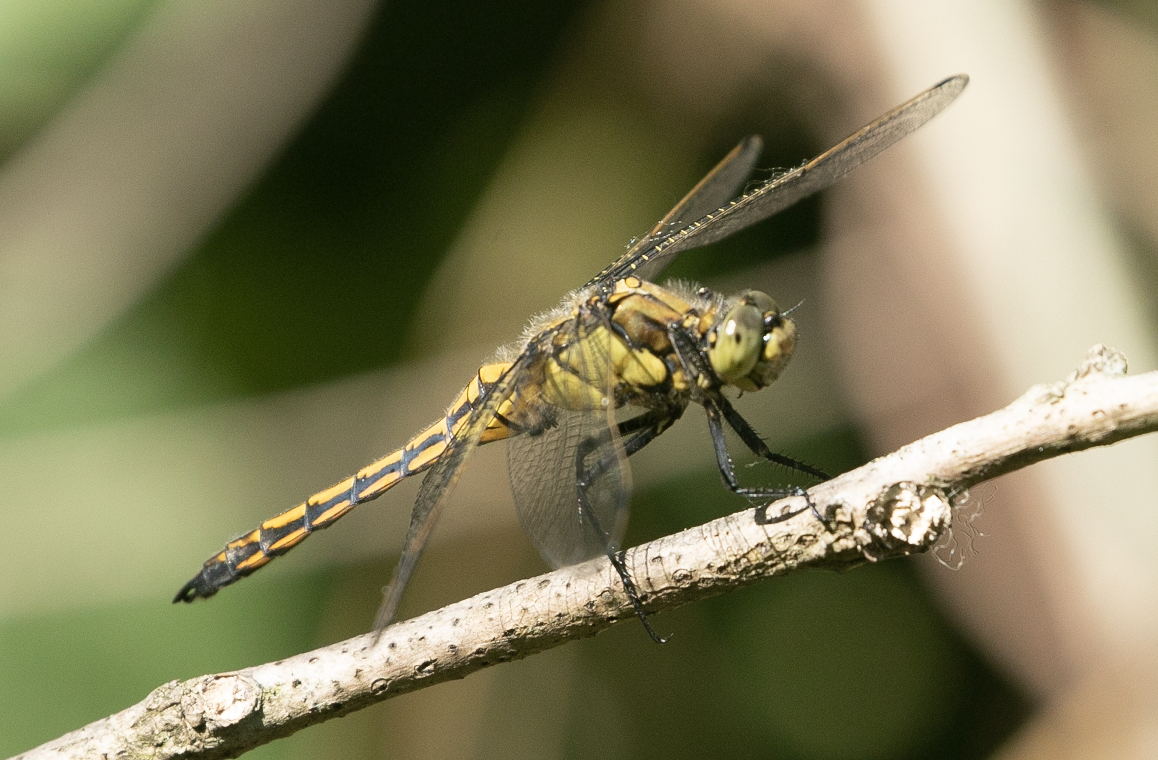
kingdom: Animalia
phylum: Arthropoda
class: Insecta
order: Odonata
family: Libellulidae
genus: Orthetrum
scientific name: Orthetrum cancellatum
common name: Black-tailed skimmer
